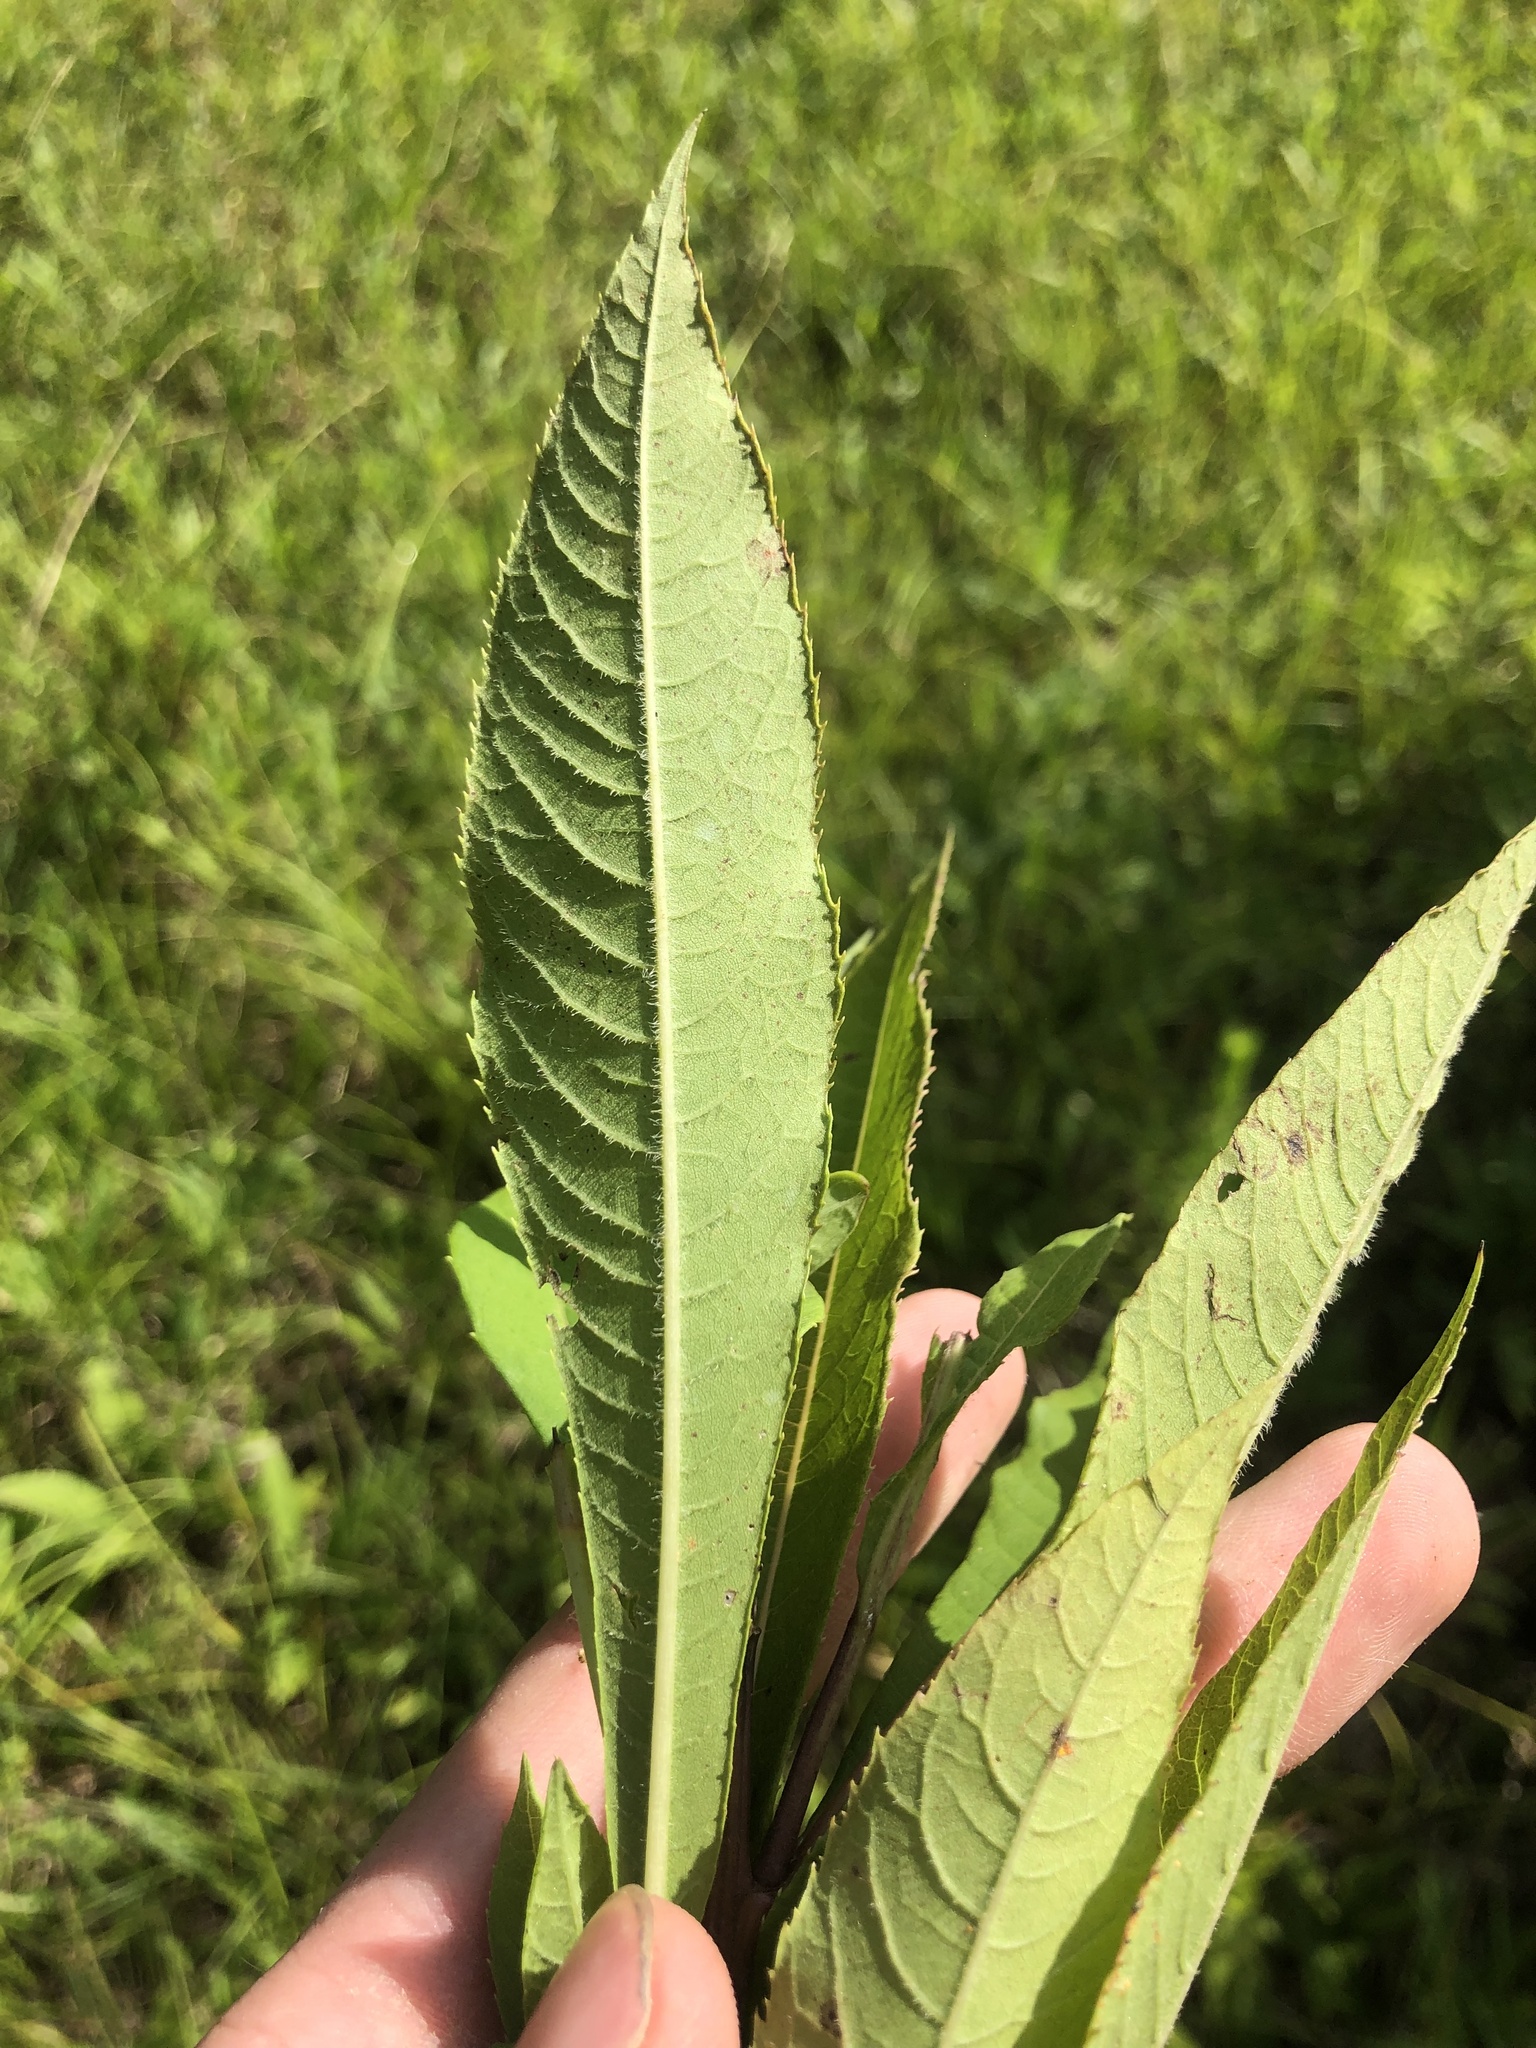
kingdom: Plantae
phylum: Tracheophyta
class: Magnoliopsida
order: Asterales
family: Asteraceae
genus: Vernonia
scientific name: Vernonia gigantea
